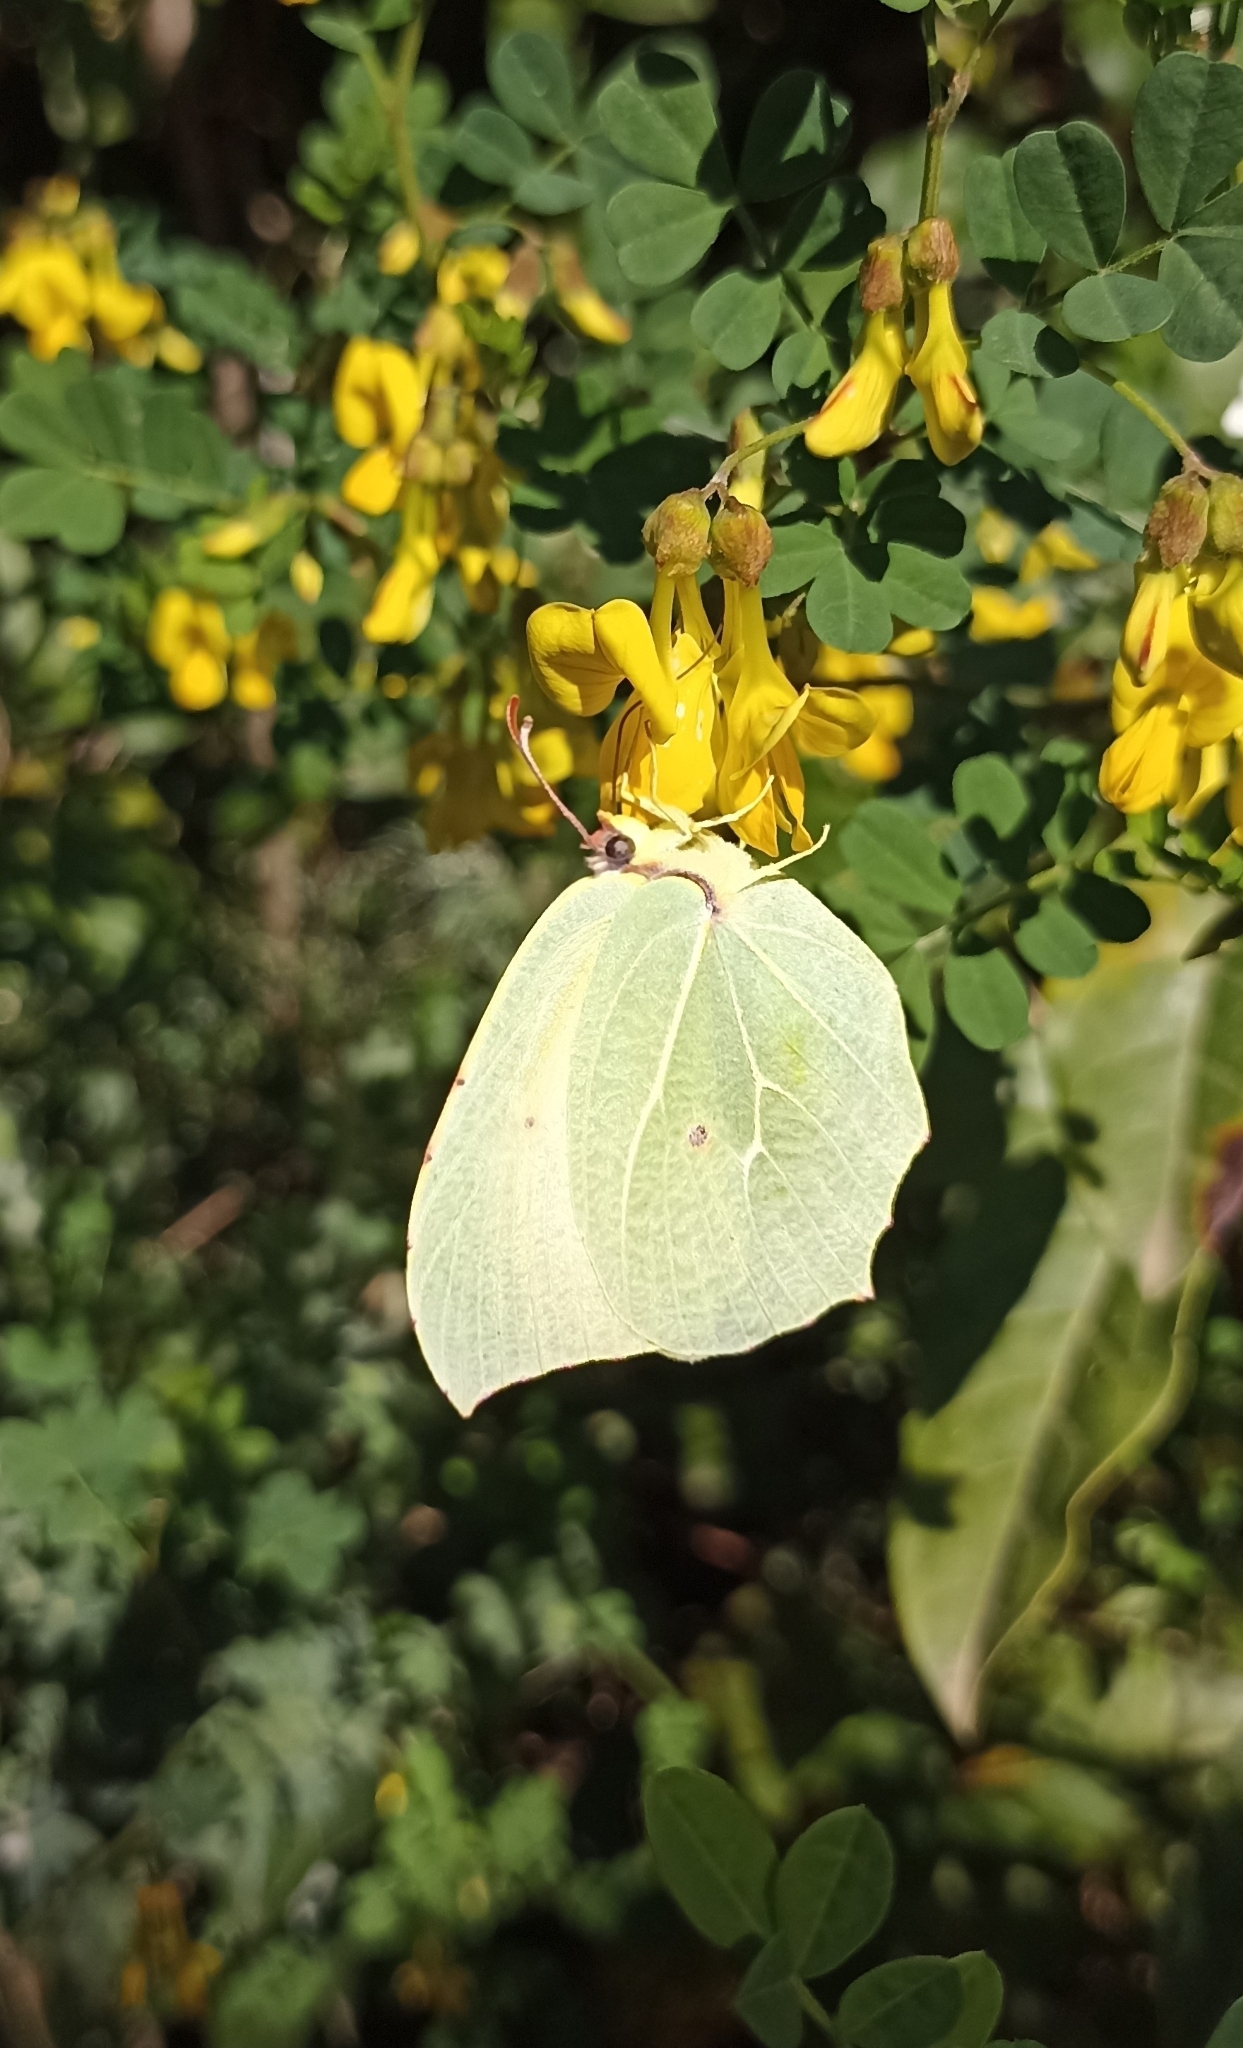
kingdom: Animalia
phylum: Arthropoda
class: Insecta
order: Lepidoptera
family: Pieridae
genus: Gonepteryx
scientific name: Gonepteryx cleopatra
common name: Cleopatra
